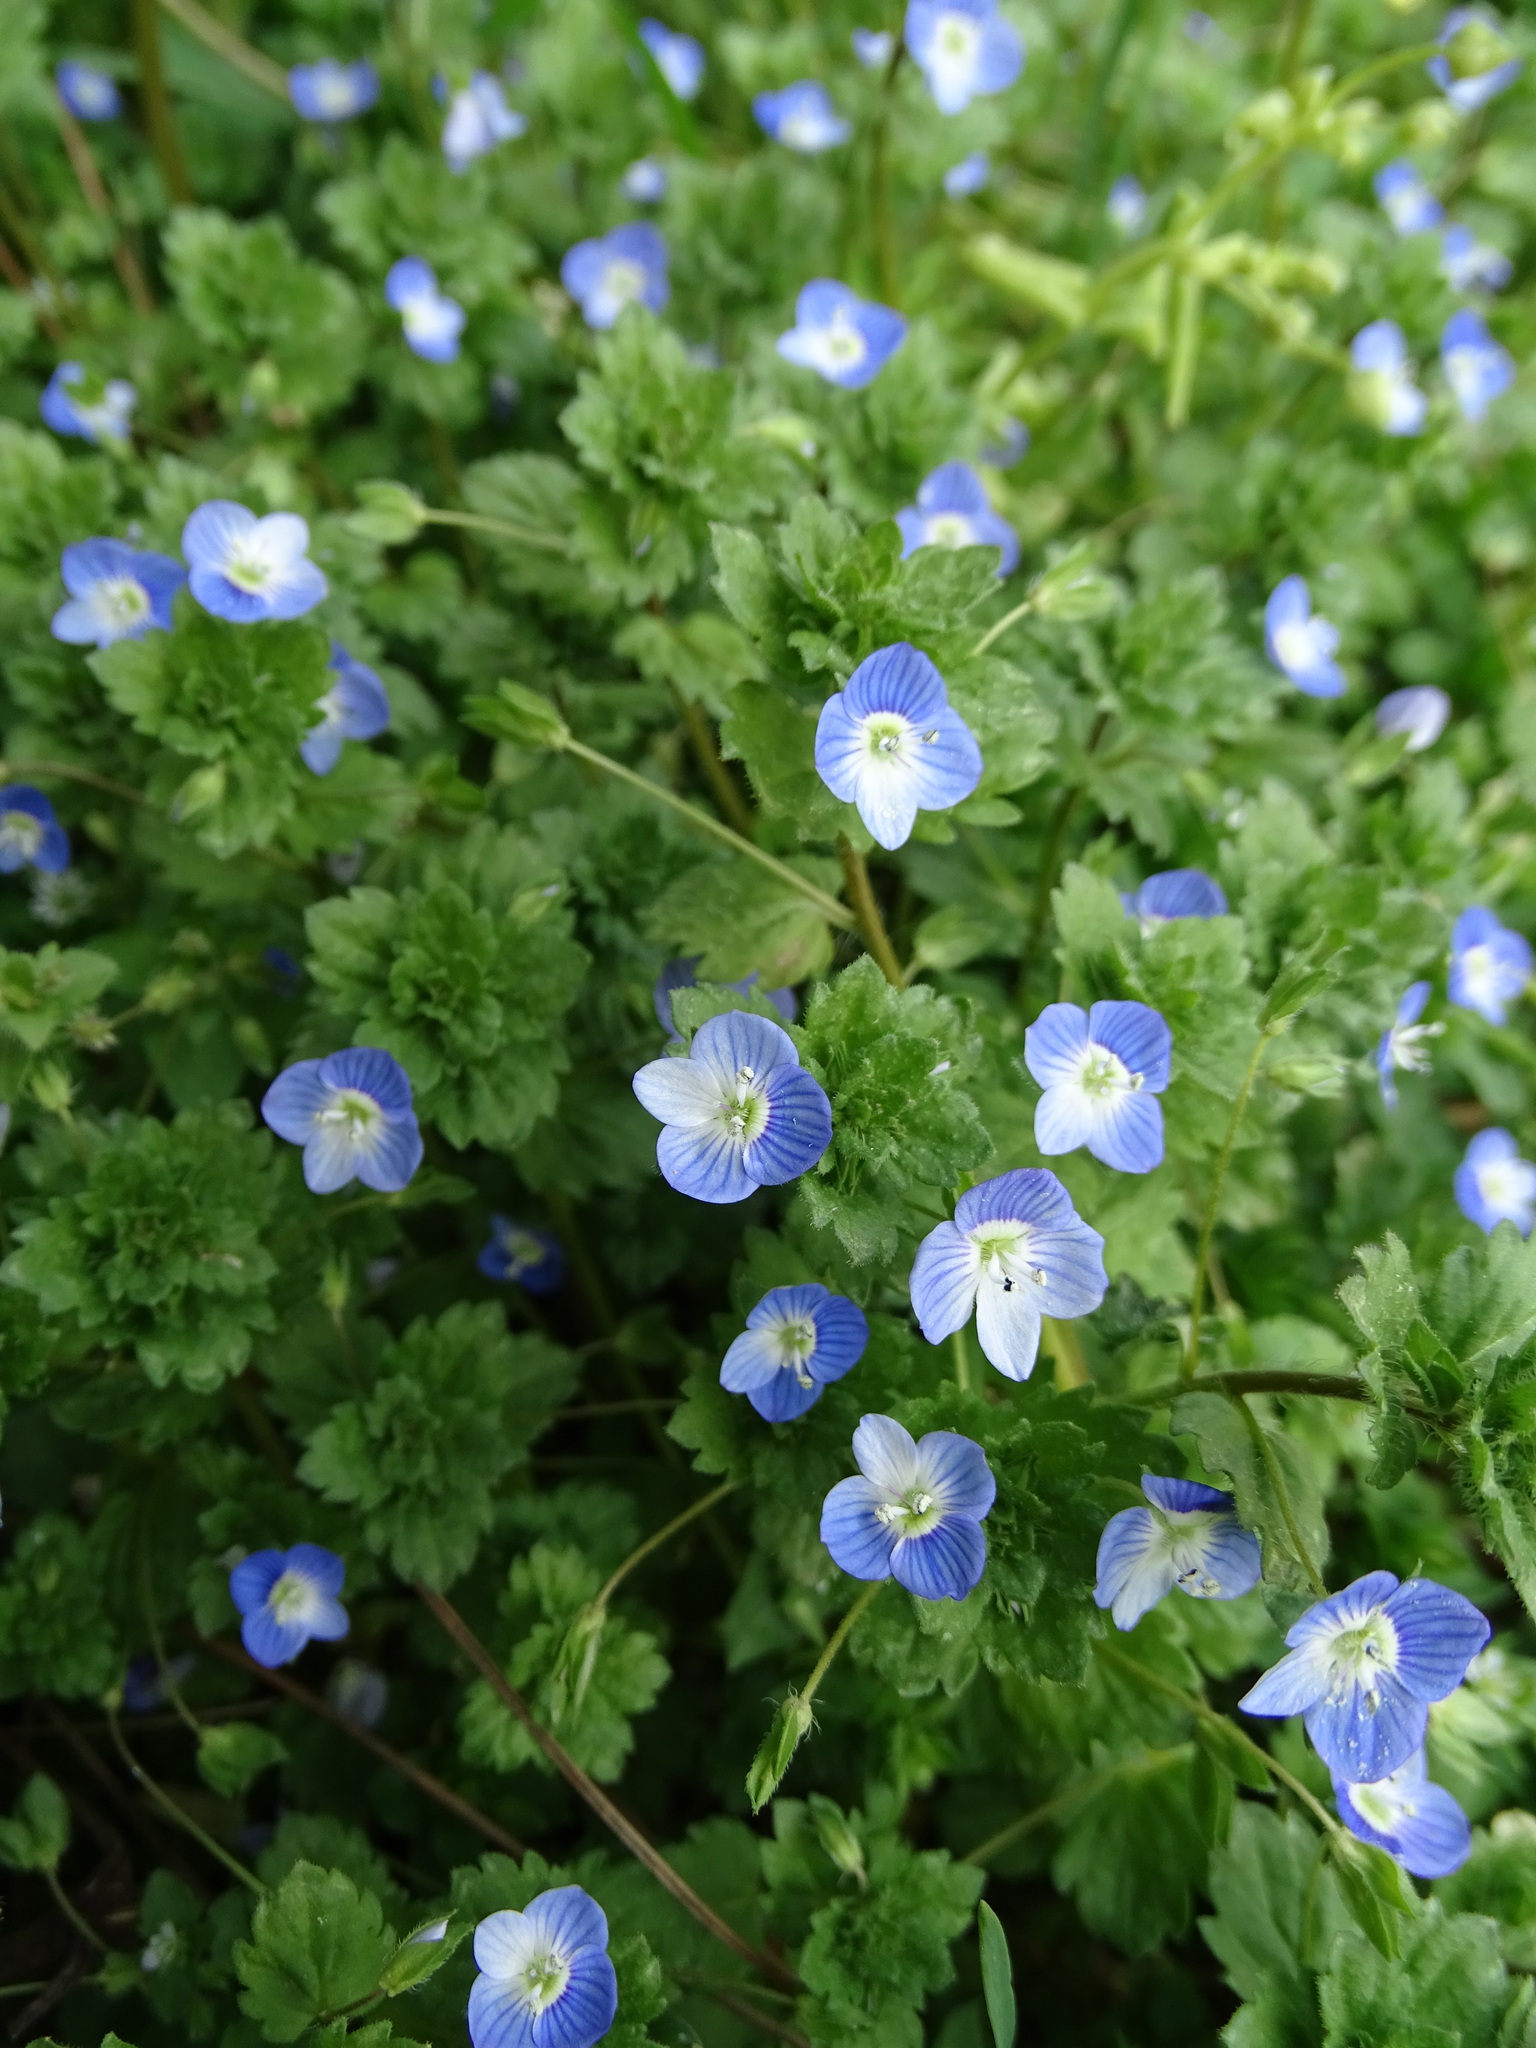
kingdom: Plantae
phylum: Tracheophyta
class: Magnoliopsida
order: Lamiales
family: Plantaginaceae
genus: Veronica
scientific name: Veronica persica
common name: Common field-speedwell
